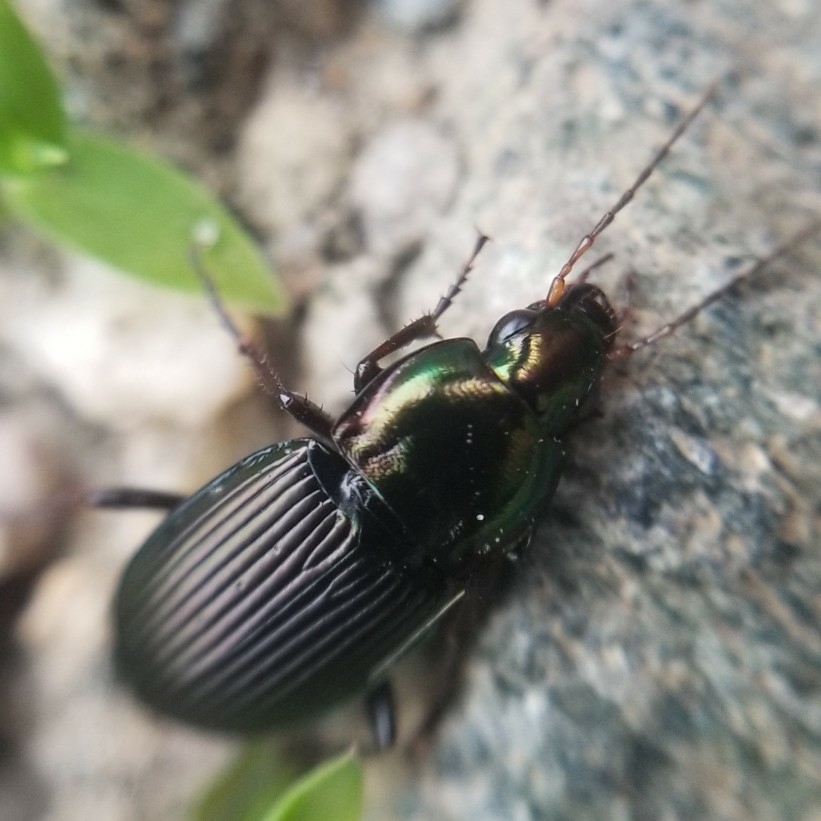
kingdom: Animalia
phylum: Arthropoda
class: Insecta
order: Coleoptera
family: Carabidae
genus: Poecilus
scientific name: Poecilus lucublandus
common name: Woodland ground beetle
